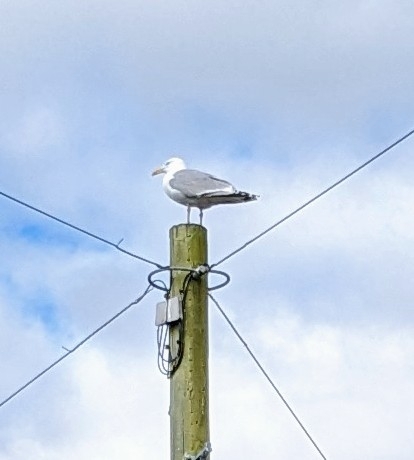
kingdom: Animalia
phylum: Chordata
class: Aves
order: Charadriiformes
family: Laridae
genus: Larus
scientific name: Larus argentatus
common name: Herring gull
